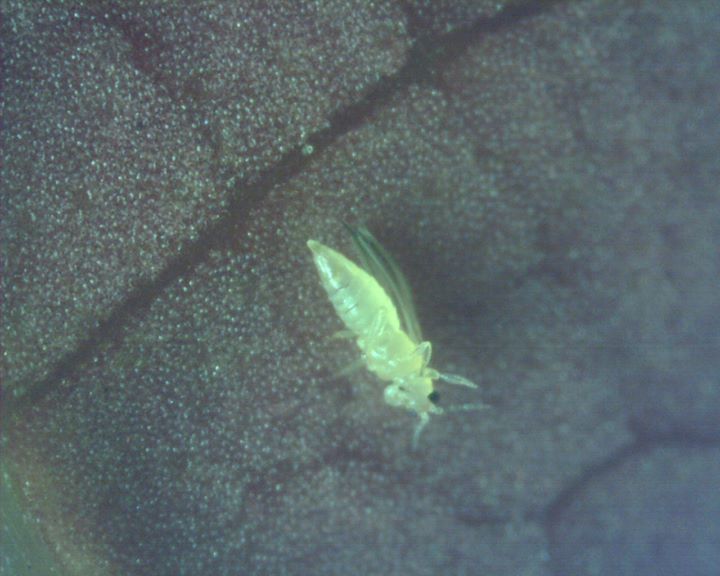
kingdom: Animalia
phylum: Arthropoda
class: Insecta
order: Thysanoptera
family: Thripidae
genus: Scirtothrips
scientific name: Scirtothrips dorsalis
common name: Thrips
